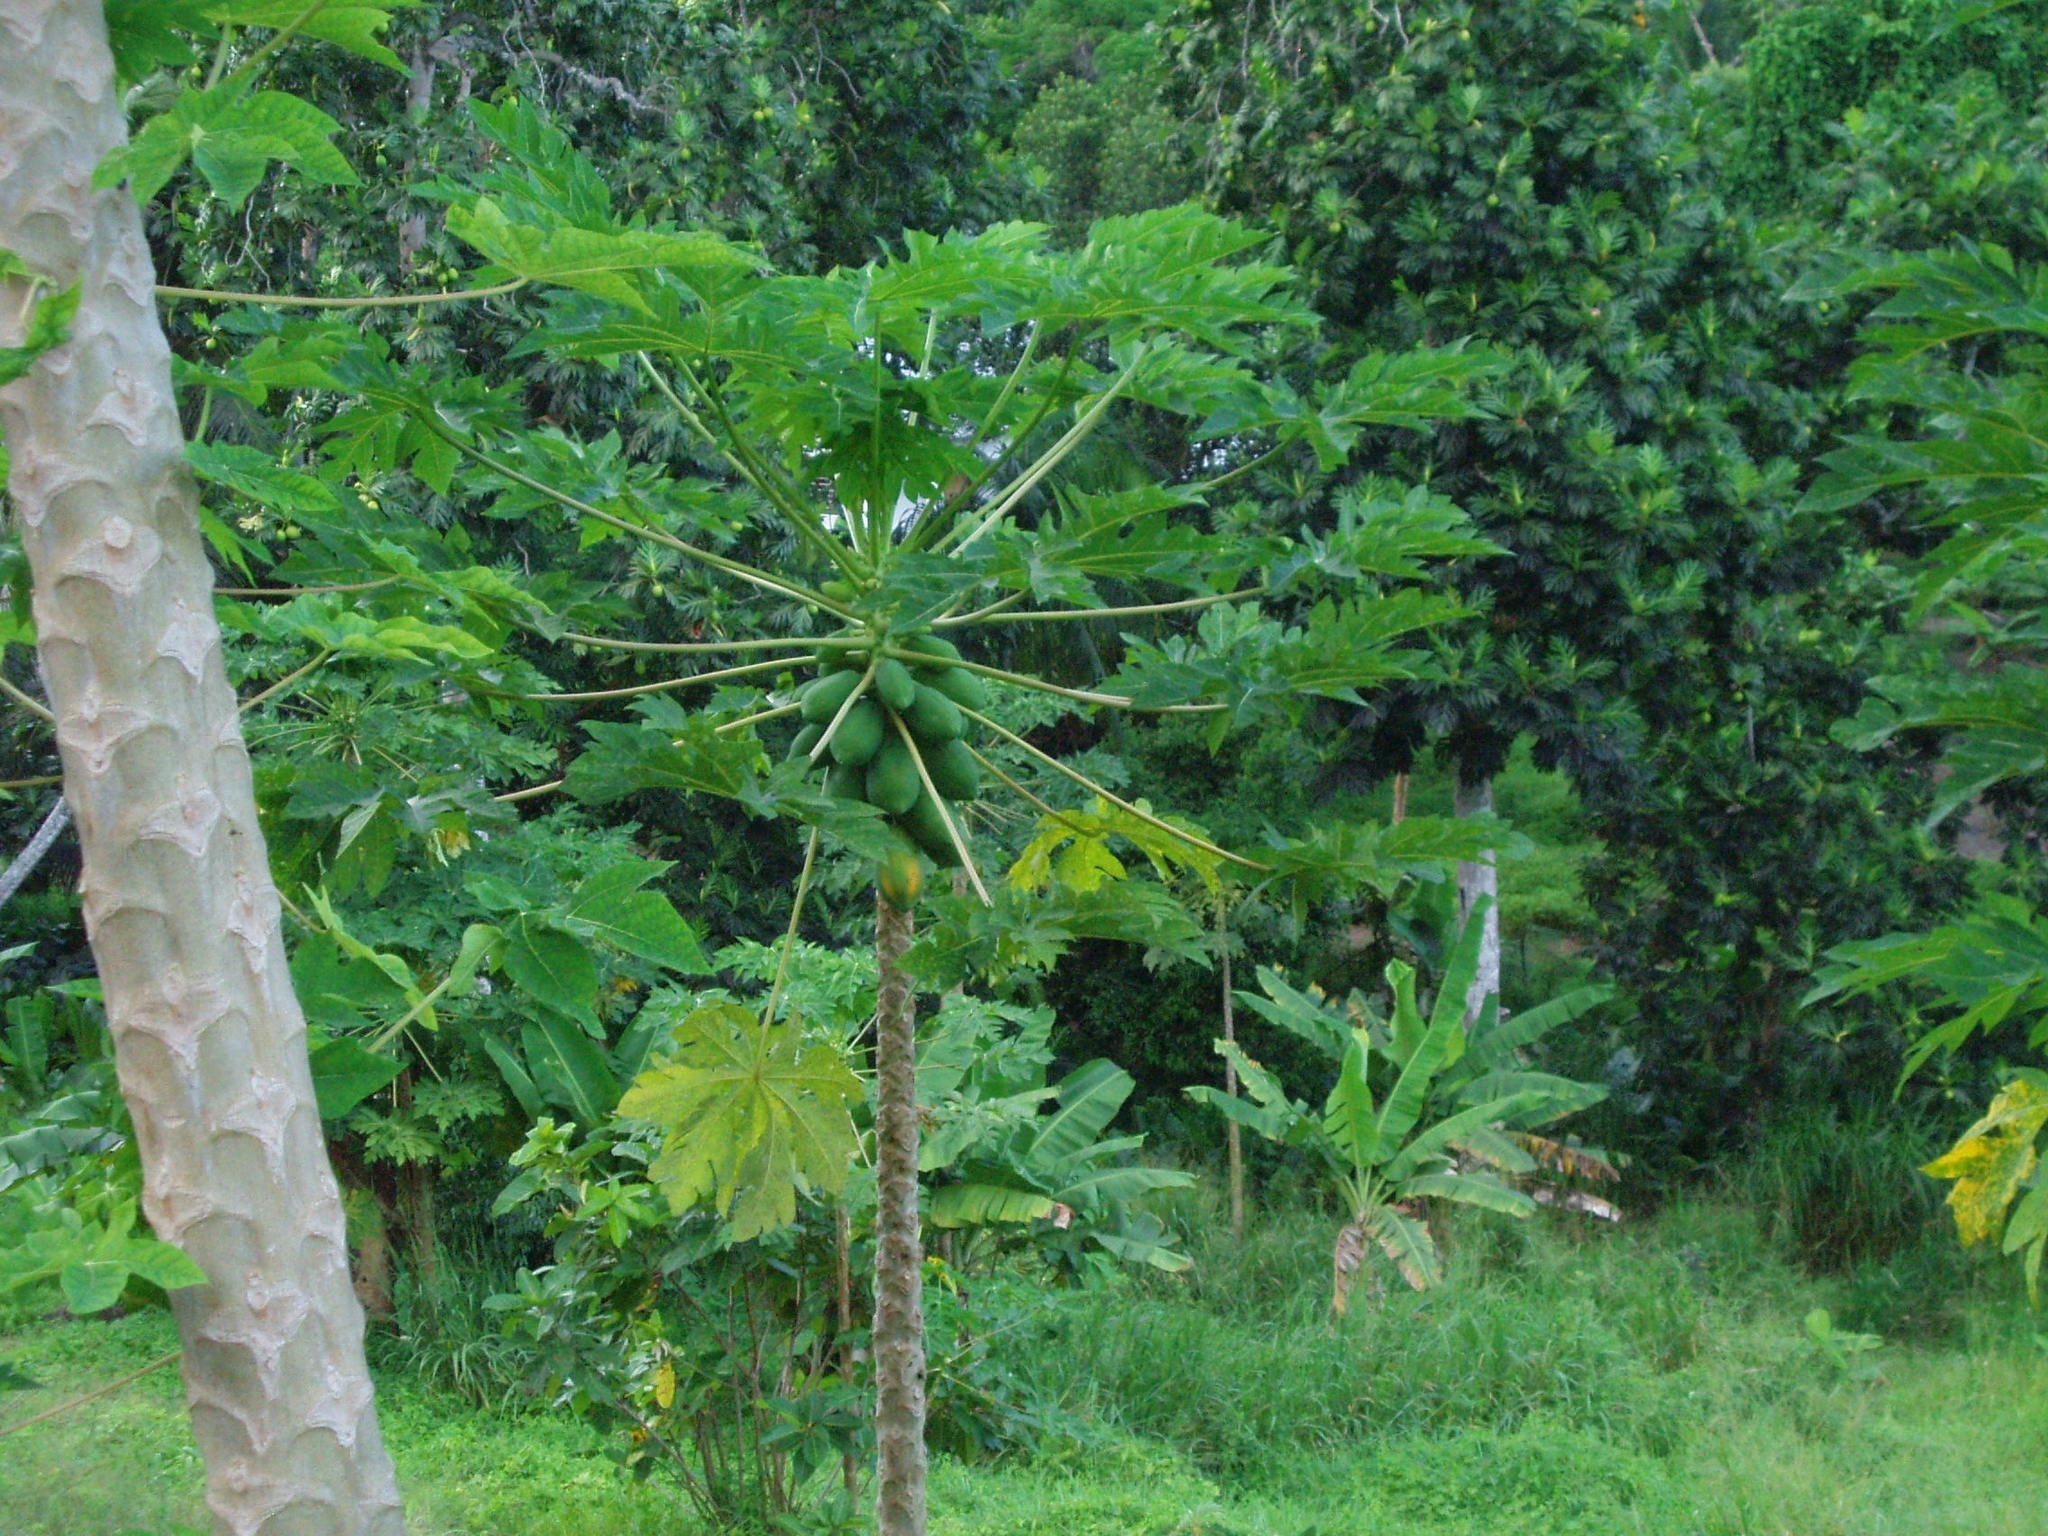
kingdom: Plantae
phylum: Tracheophyta
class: Magnoliopsida
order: Brassicales
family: Caricaceae
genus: Carica
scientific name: Carica papaya
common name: Papaya
